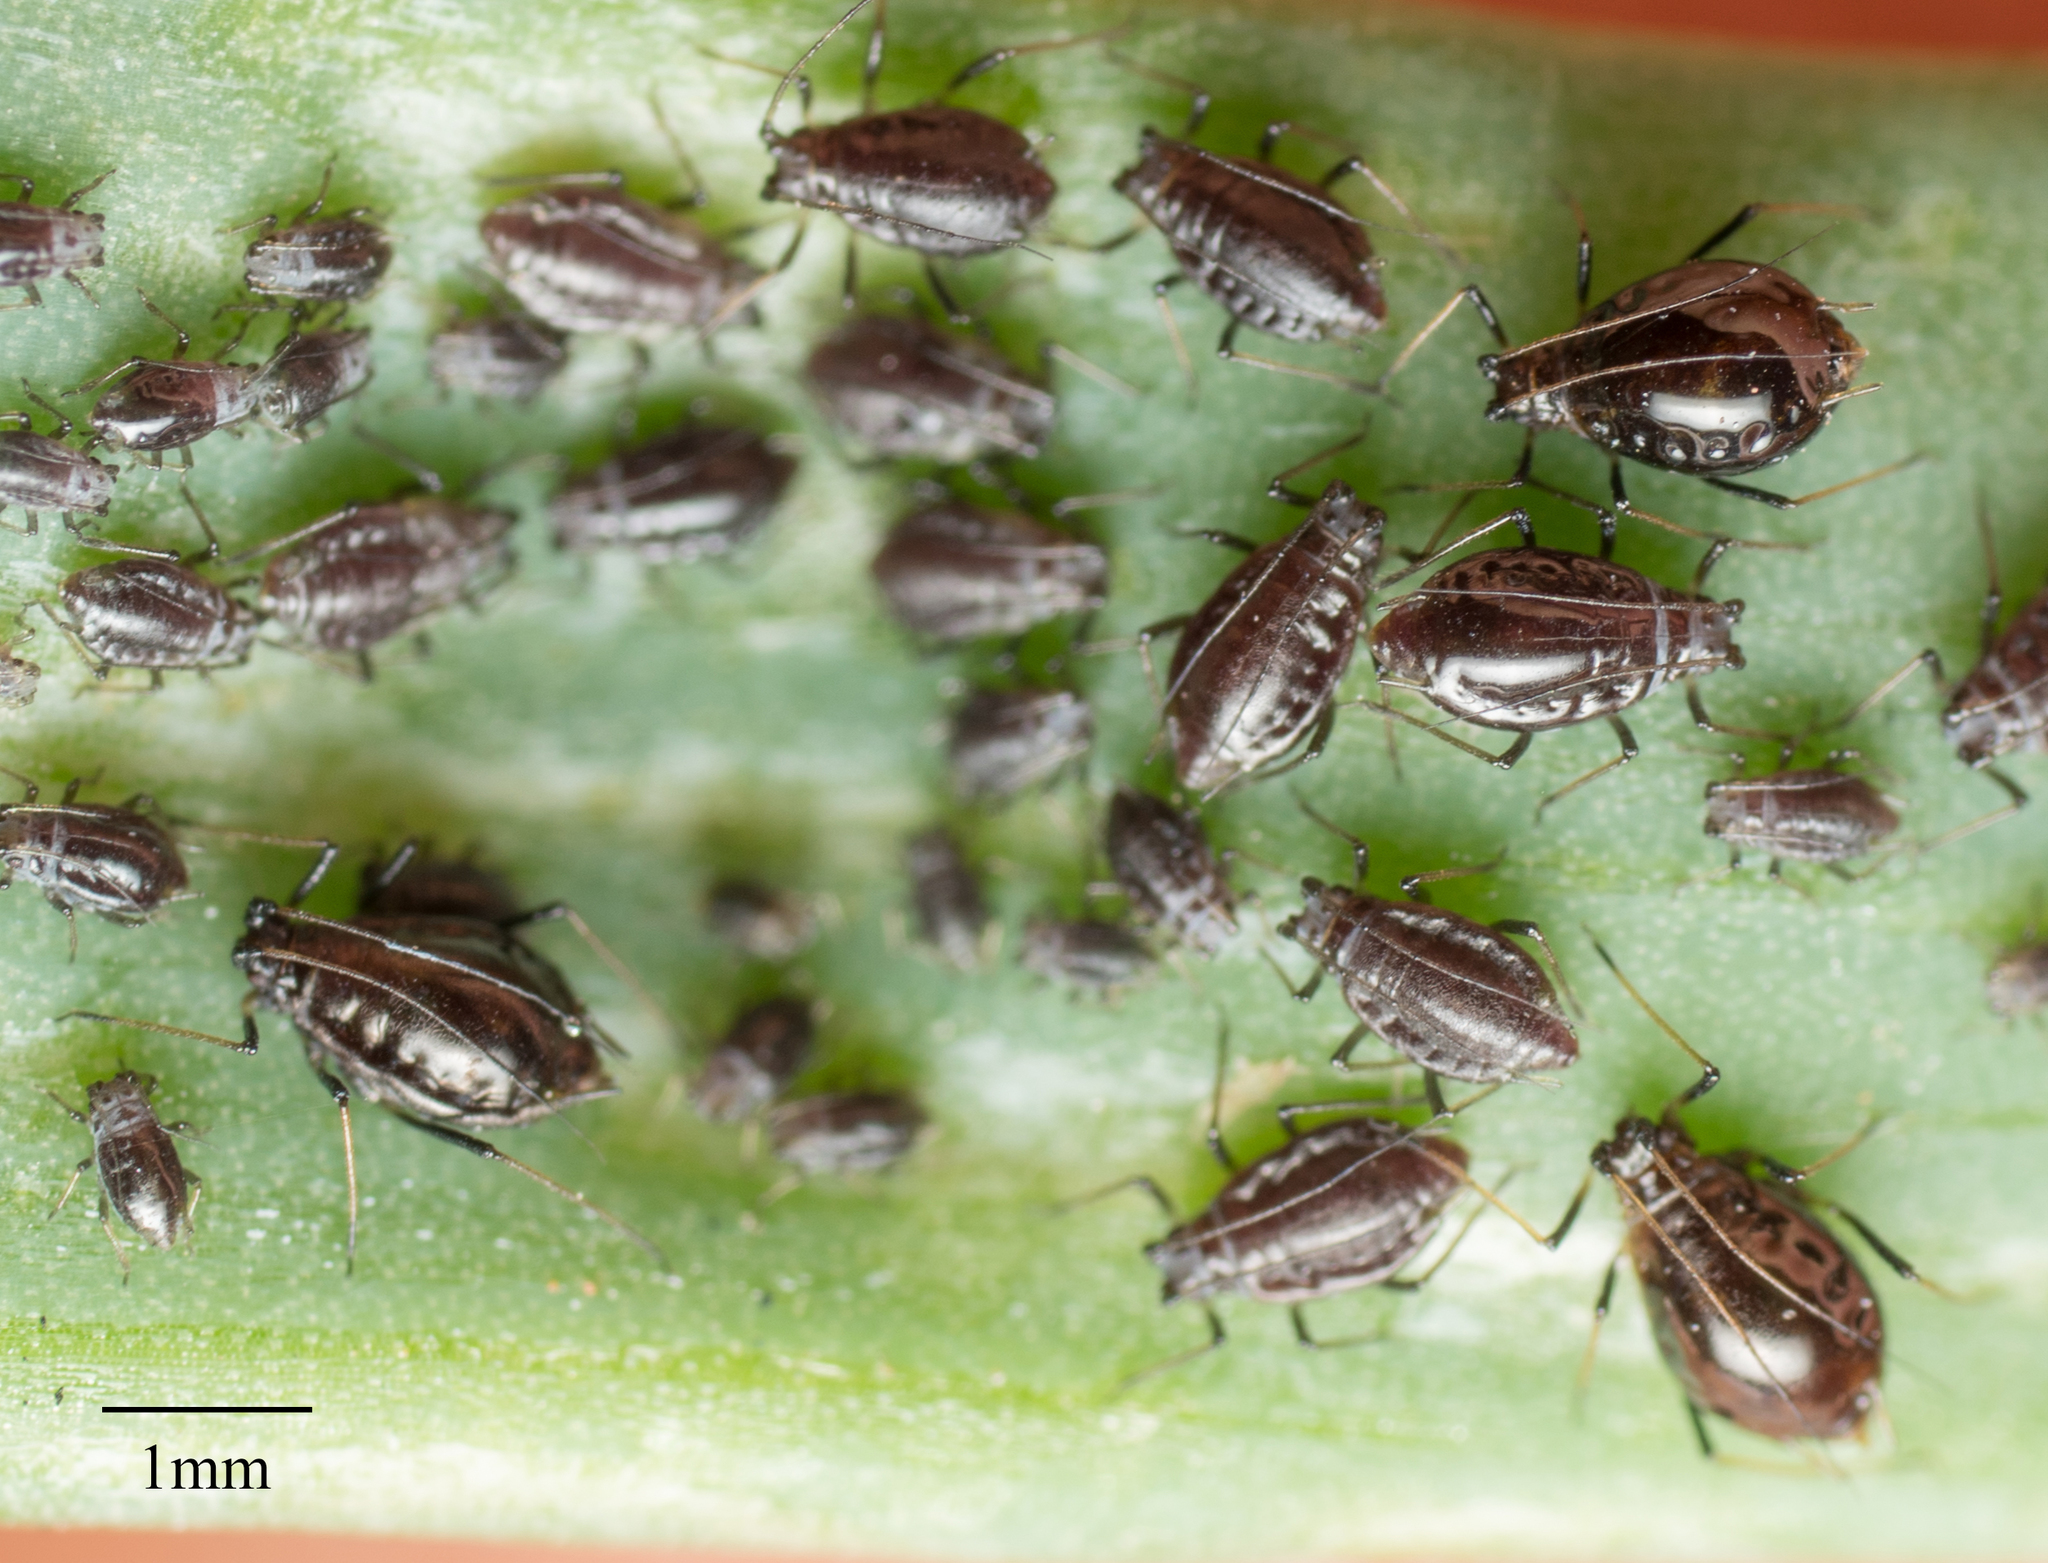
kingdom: Animalia
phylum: Arthropoda
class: Insecta
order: Hemiptera
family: Aphididae
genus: Neotoxoptera
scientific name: Neotoxoptera formosana
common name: Onion aphid
